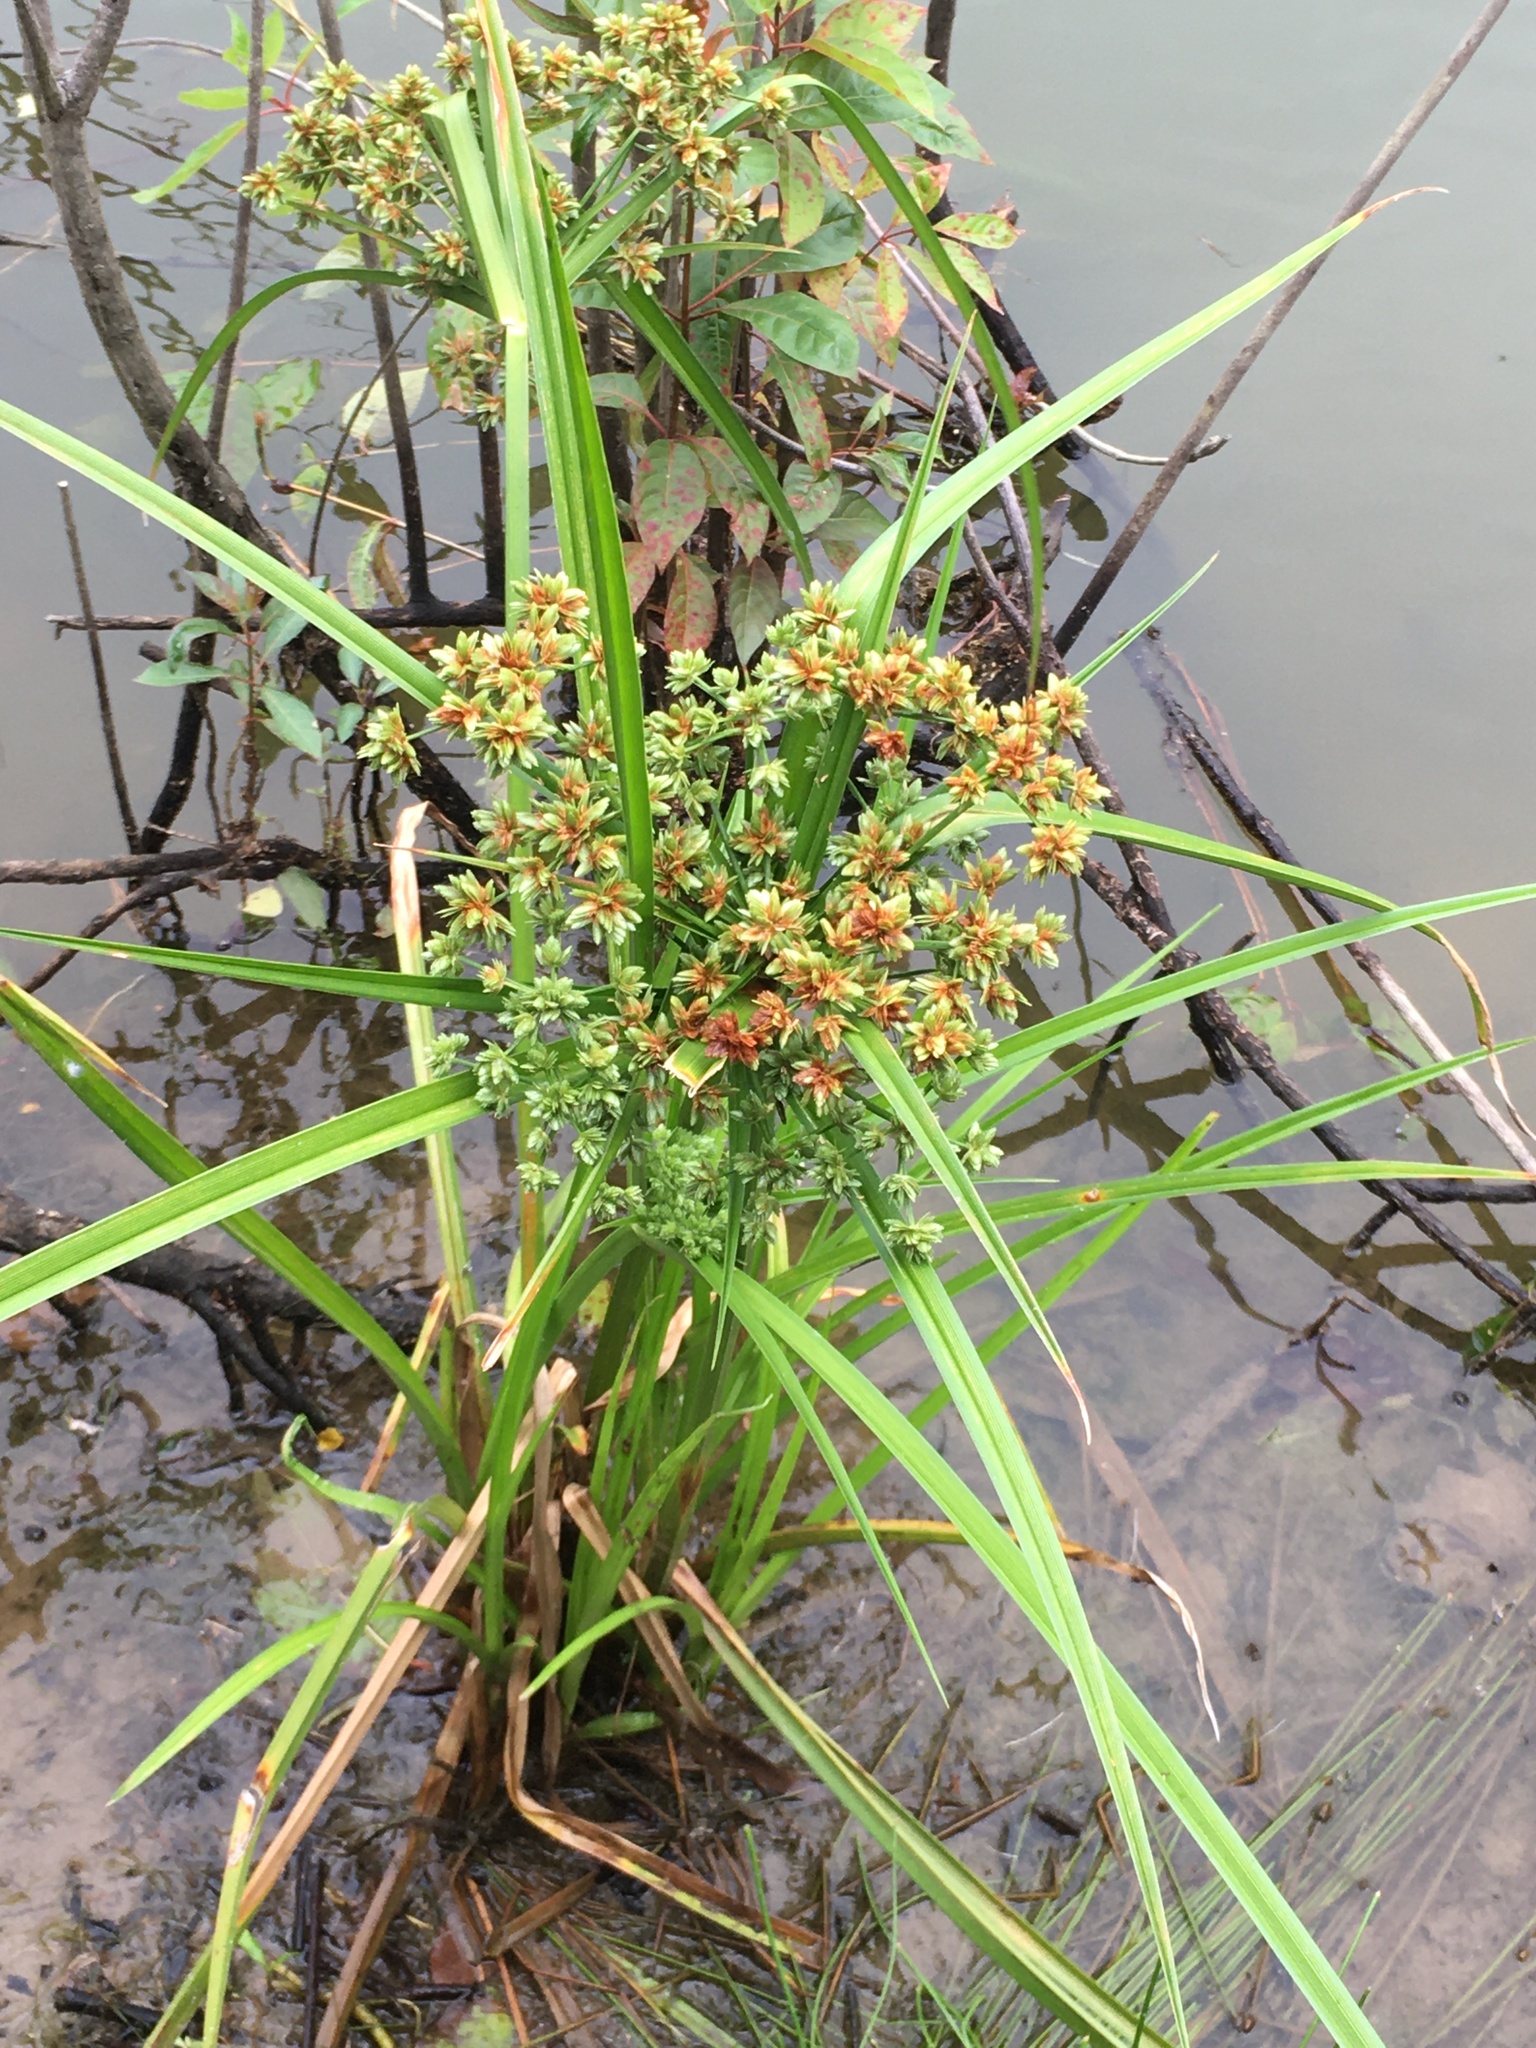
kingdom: Plantae
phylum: Tracheophyta
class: Liliopsida
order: Poales
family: Cyperaceae
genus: Cyperus
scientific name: Cyperus virens
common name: Green flatsedge
